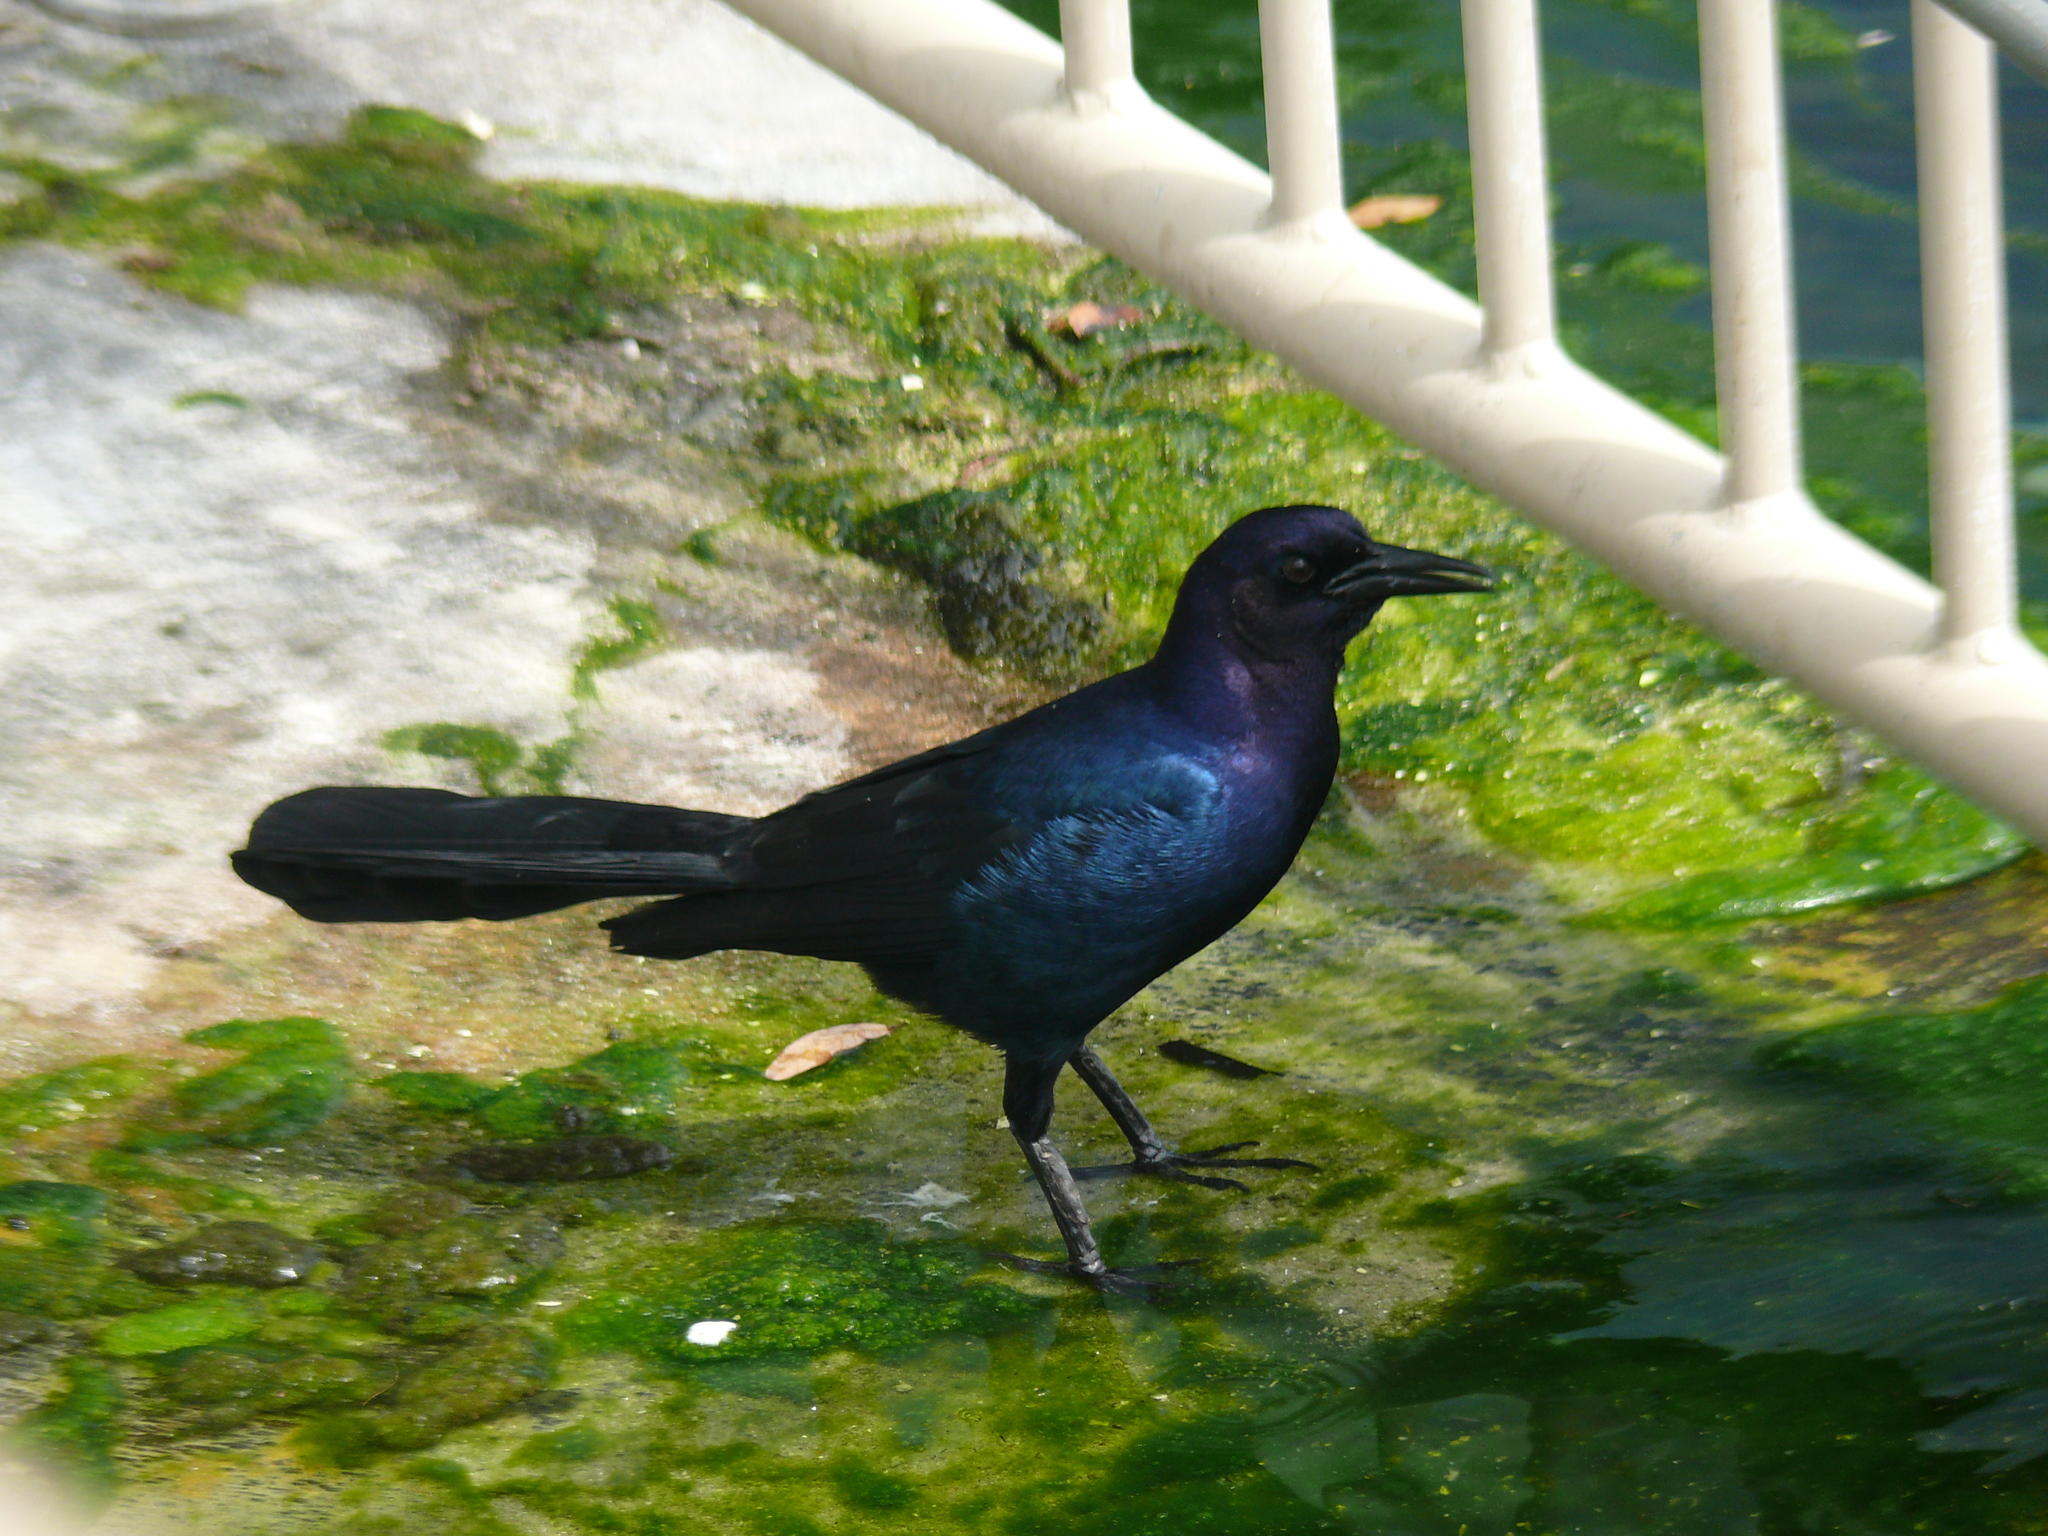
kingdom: Animalia
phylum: Chordata
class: Aves
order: Passeriformes
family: Icteridae
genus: Quiscalus
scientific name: Quiscalus major
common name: Boat-tailed grackle
